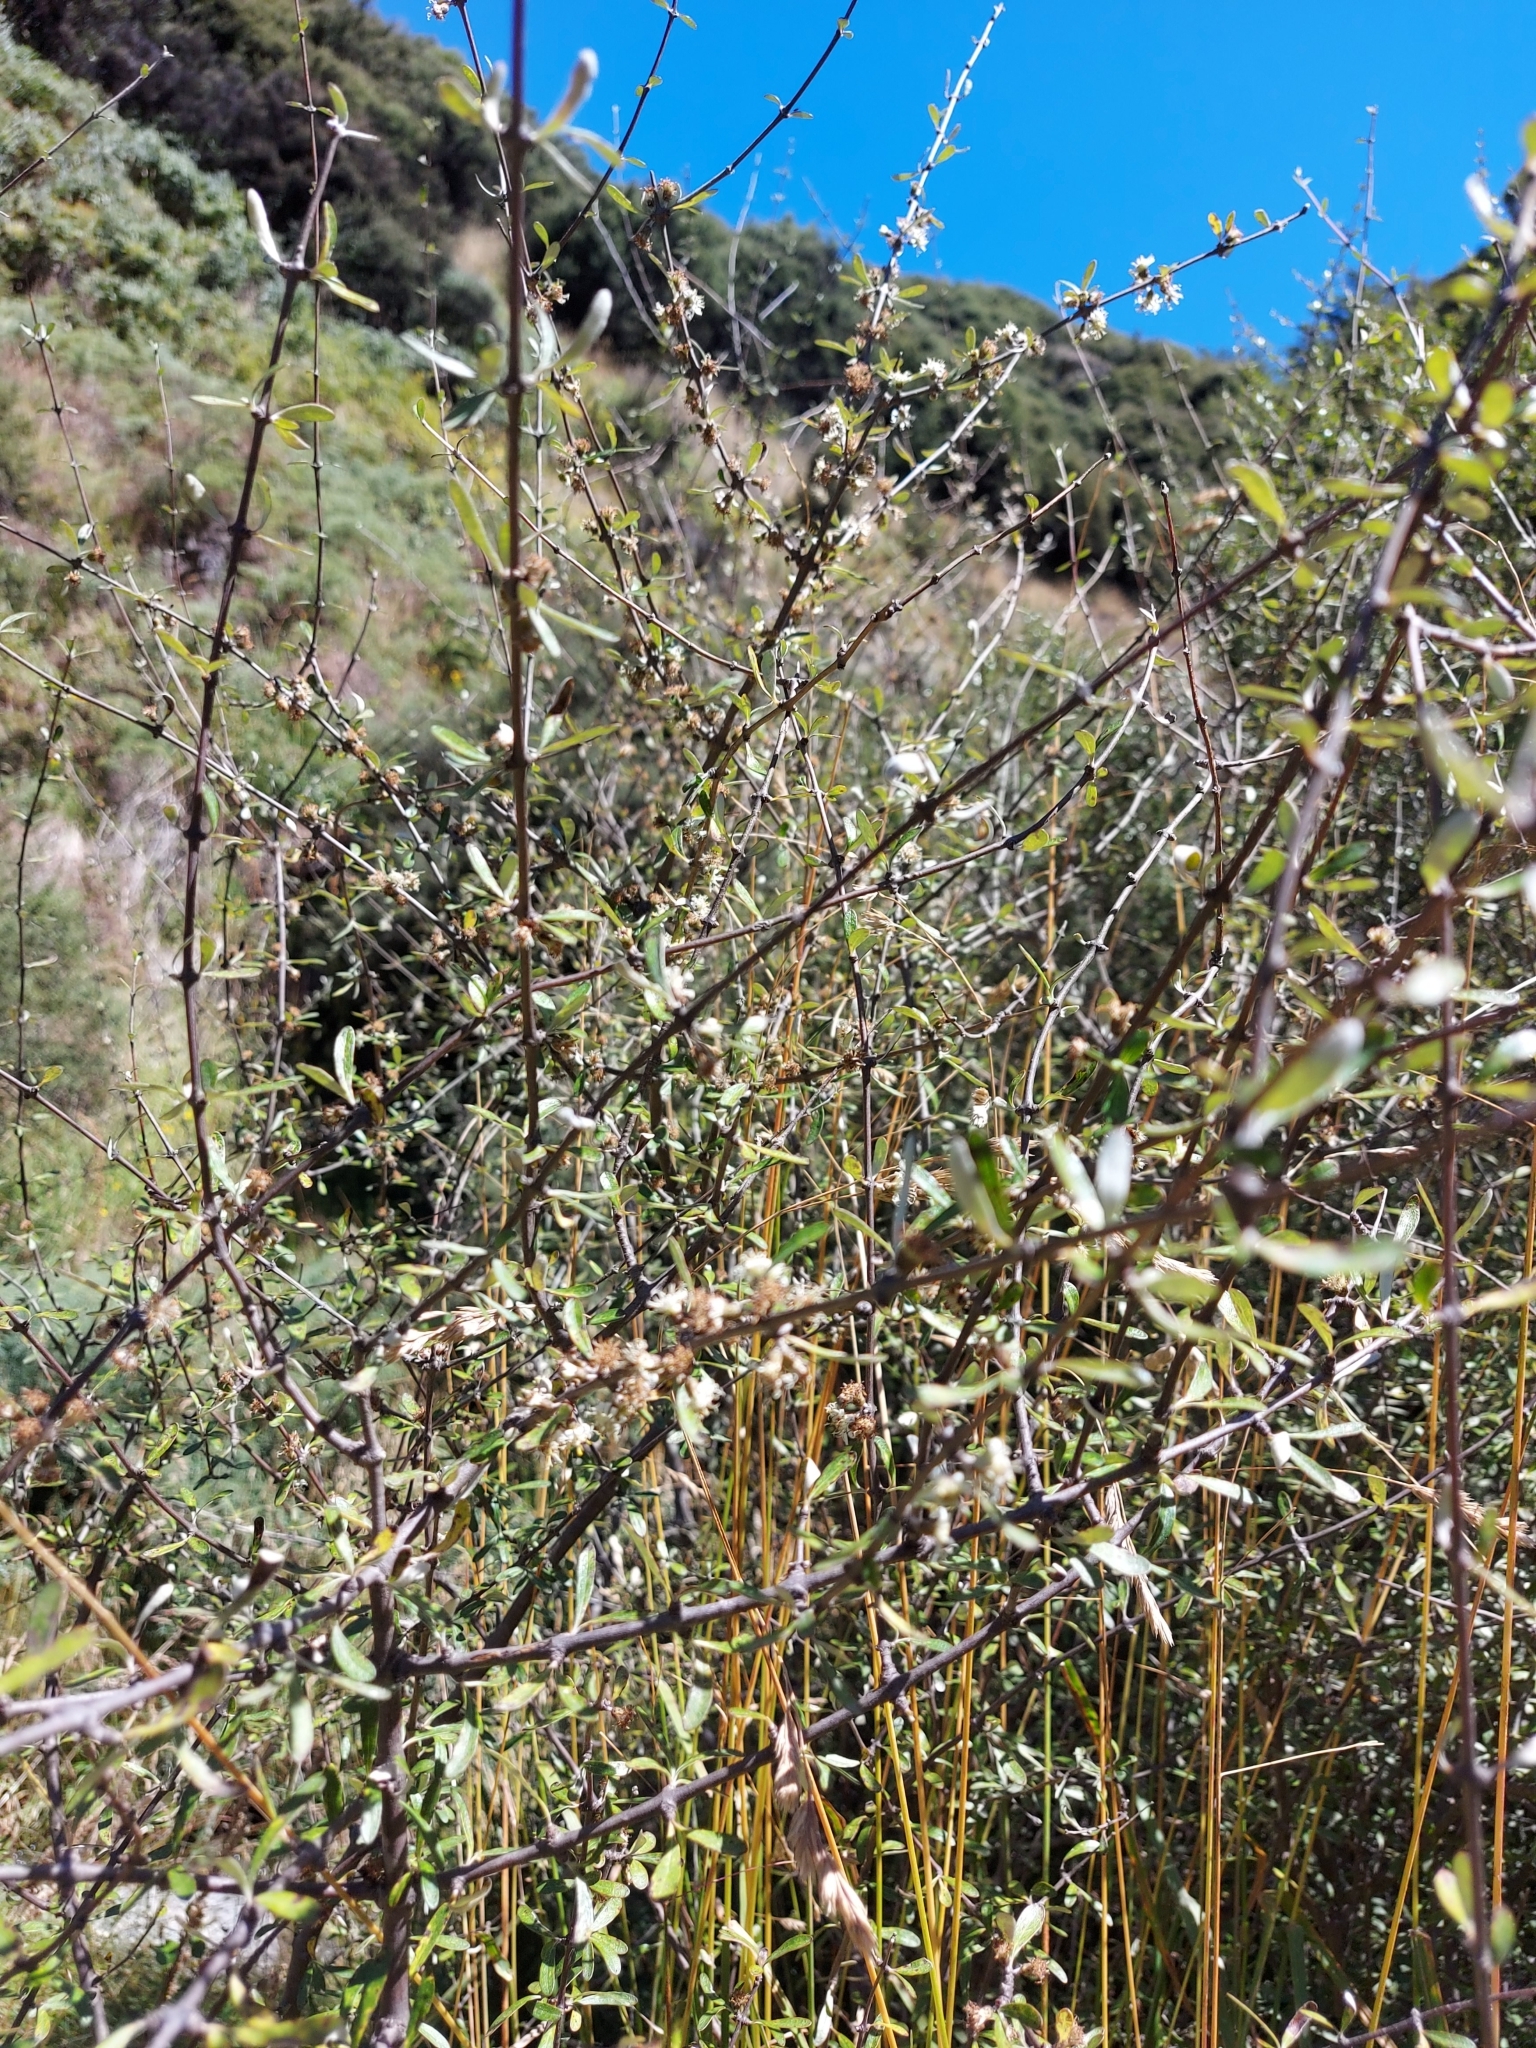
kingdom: Plantae
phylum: Tracheophyta
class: Magnoliopsida
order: Asterales
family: Asteraceae
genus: Olearia
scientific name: Olearia odorata
